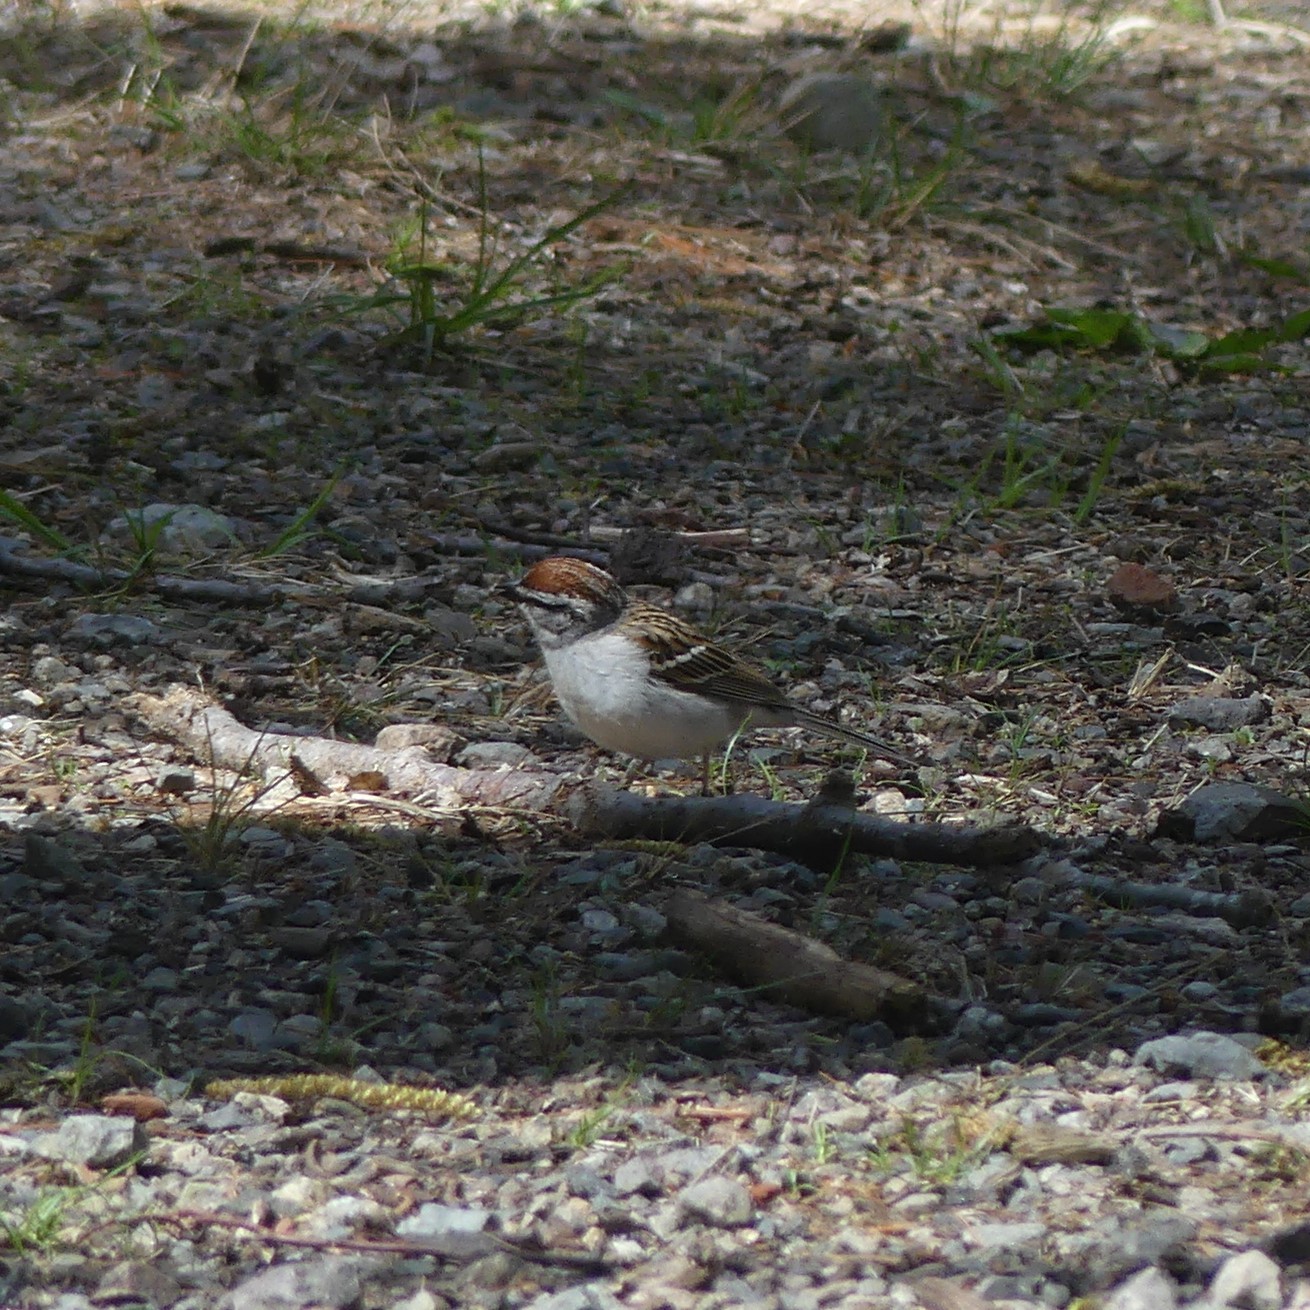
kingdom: Animalia
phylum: Chordata
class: Aves
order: Passeriformes
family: Passerellidae
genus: Spizella
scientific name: Spizella passerina
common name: Chipping sparrow
